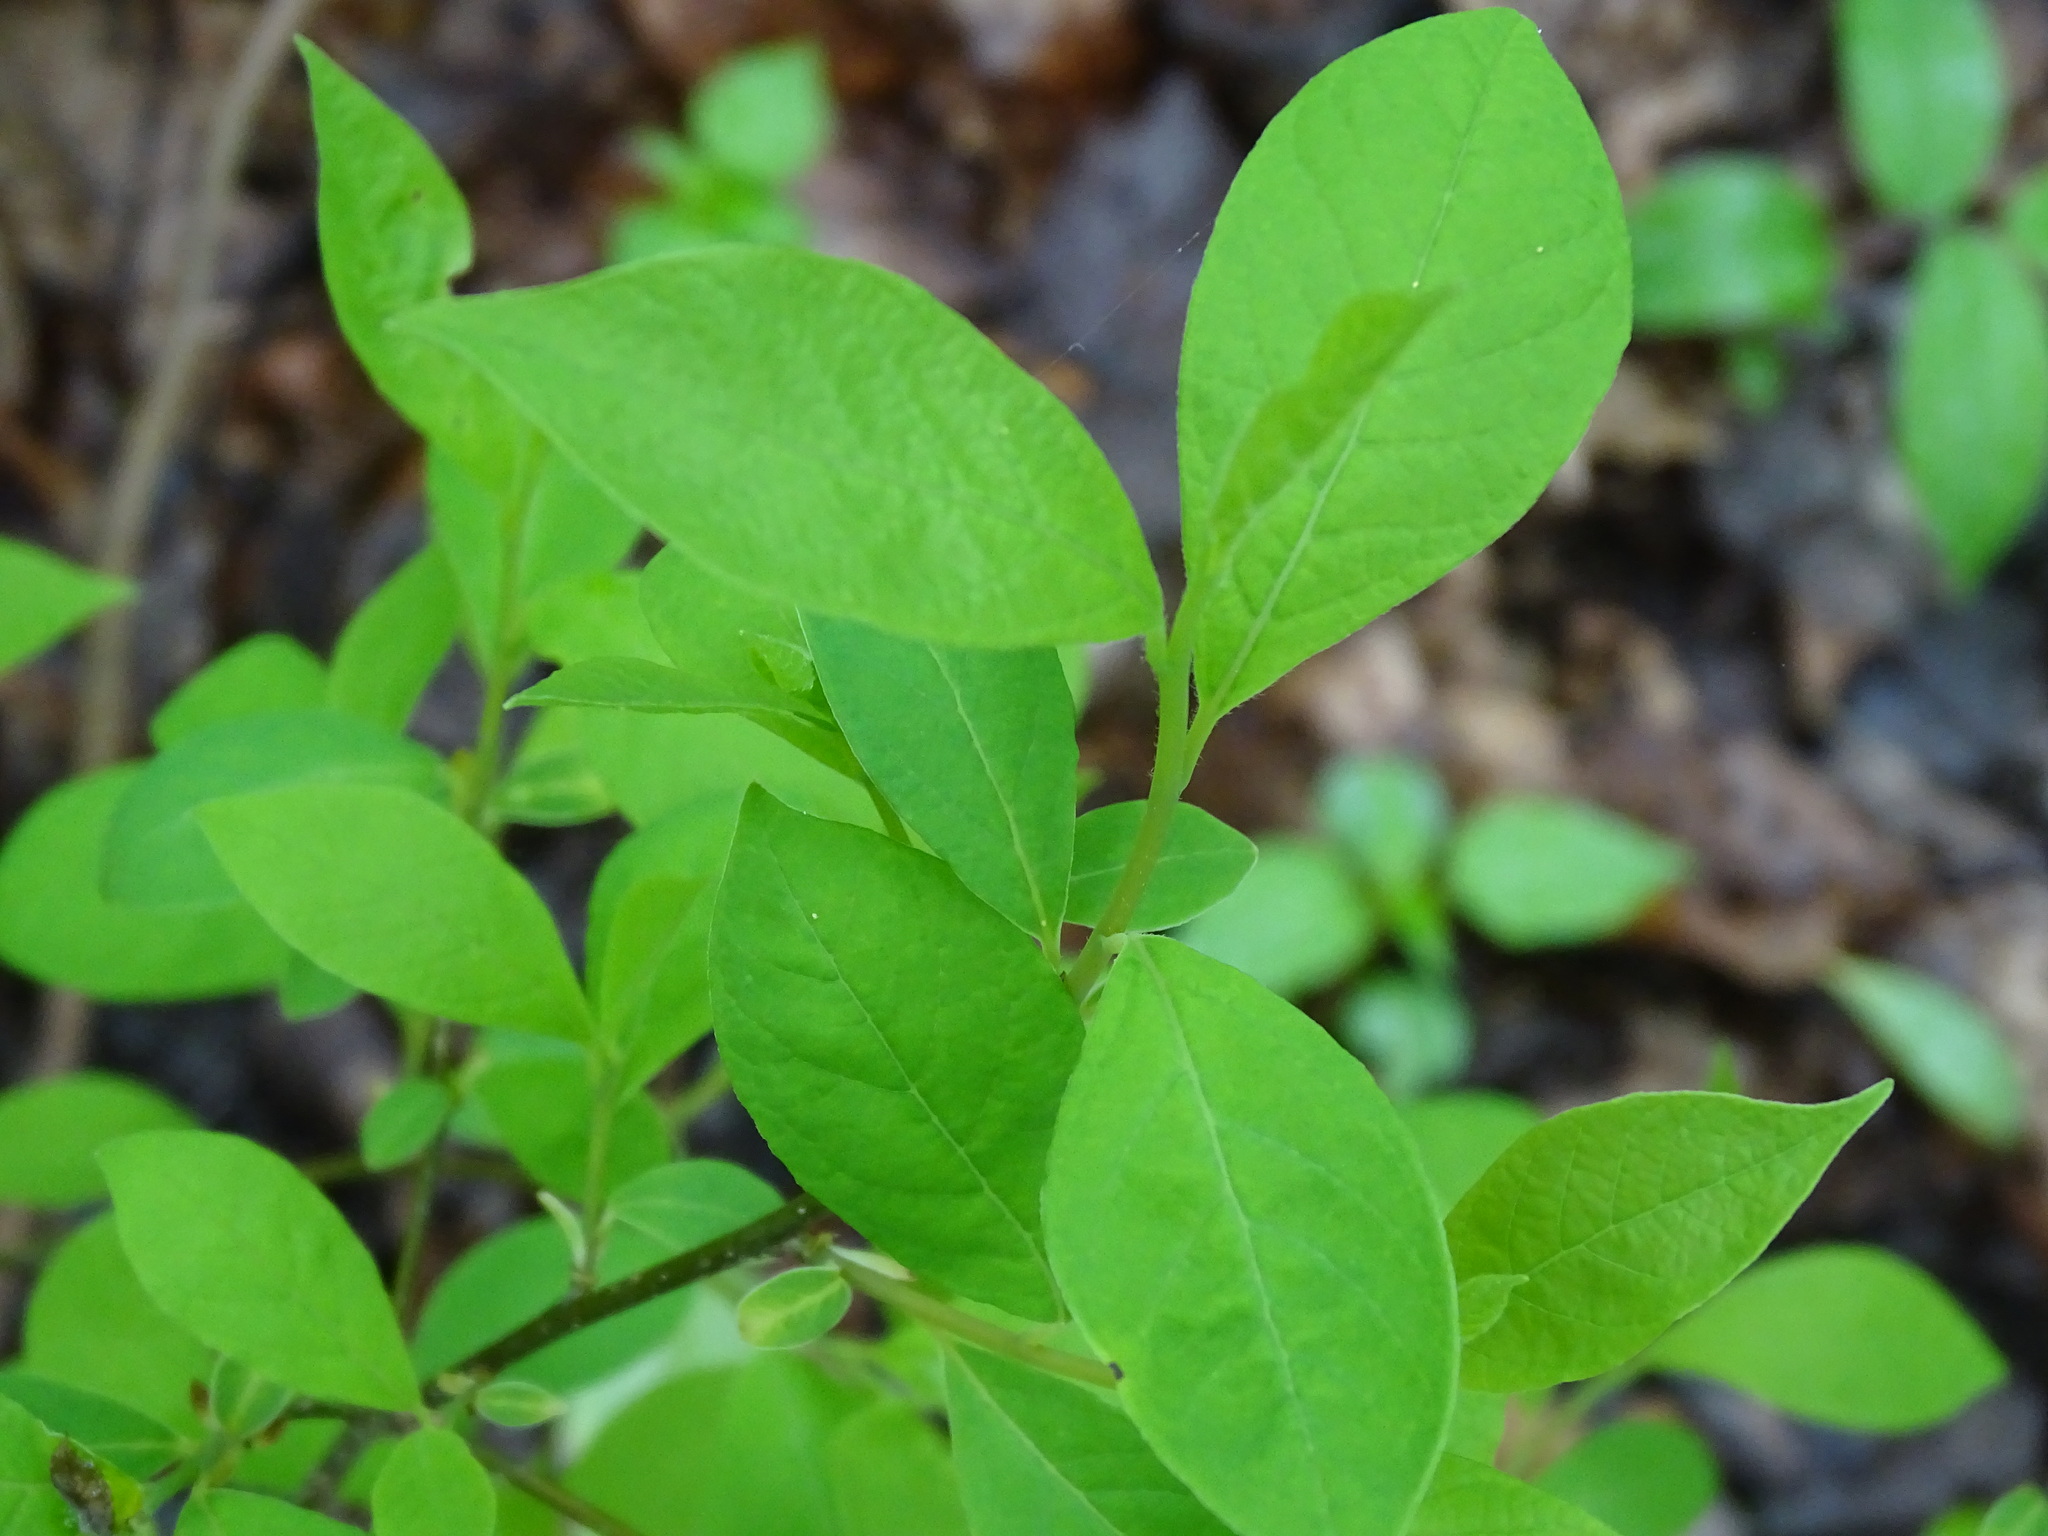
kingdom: Plantae
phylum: Tracheophyta
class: Magnoliopsida
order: Laurales
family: Lauraceae
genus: Lindera
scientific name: Lindera benzoin
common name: Spicebush
